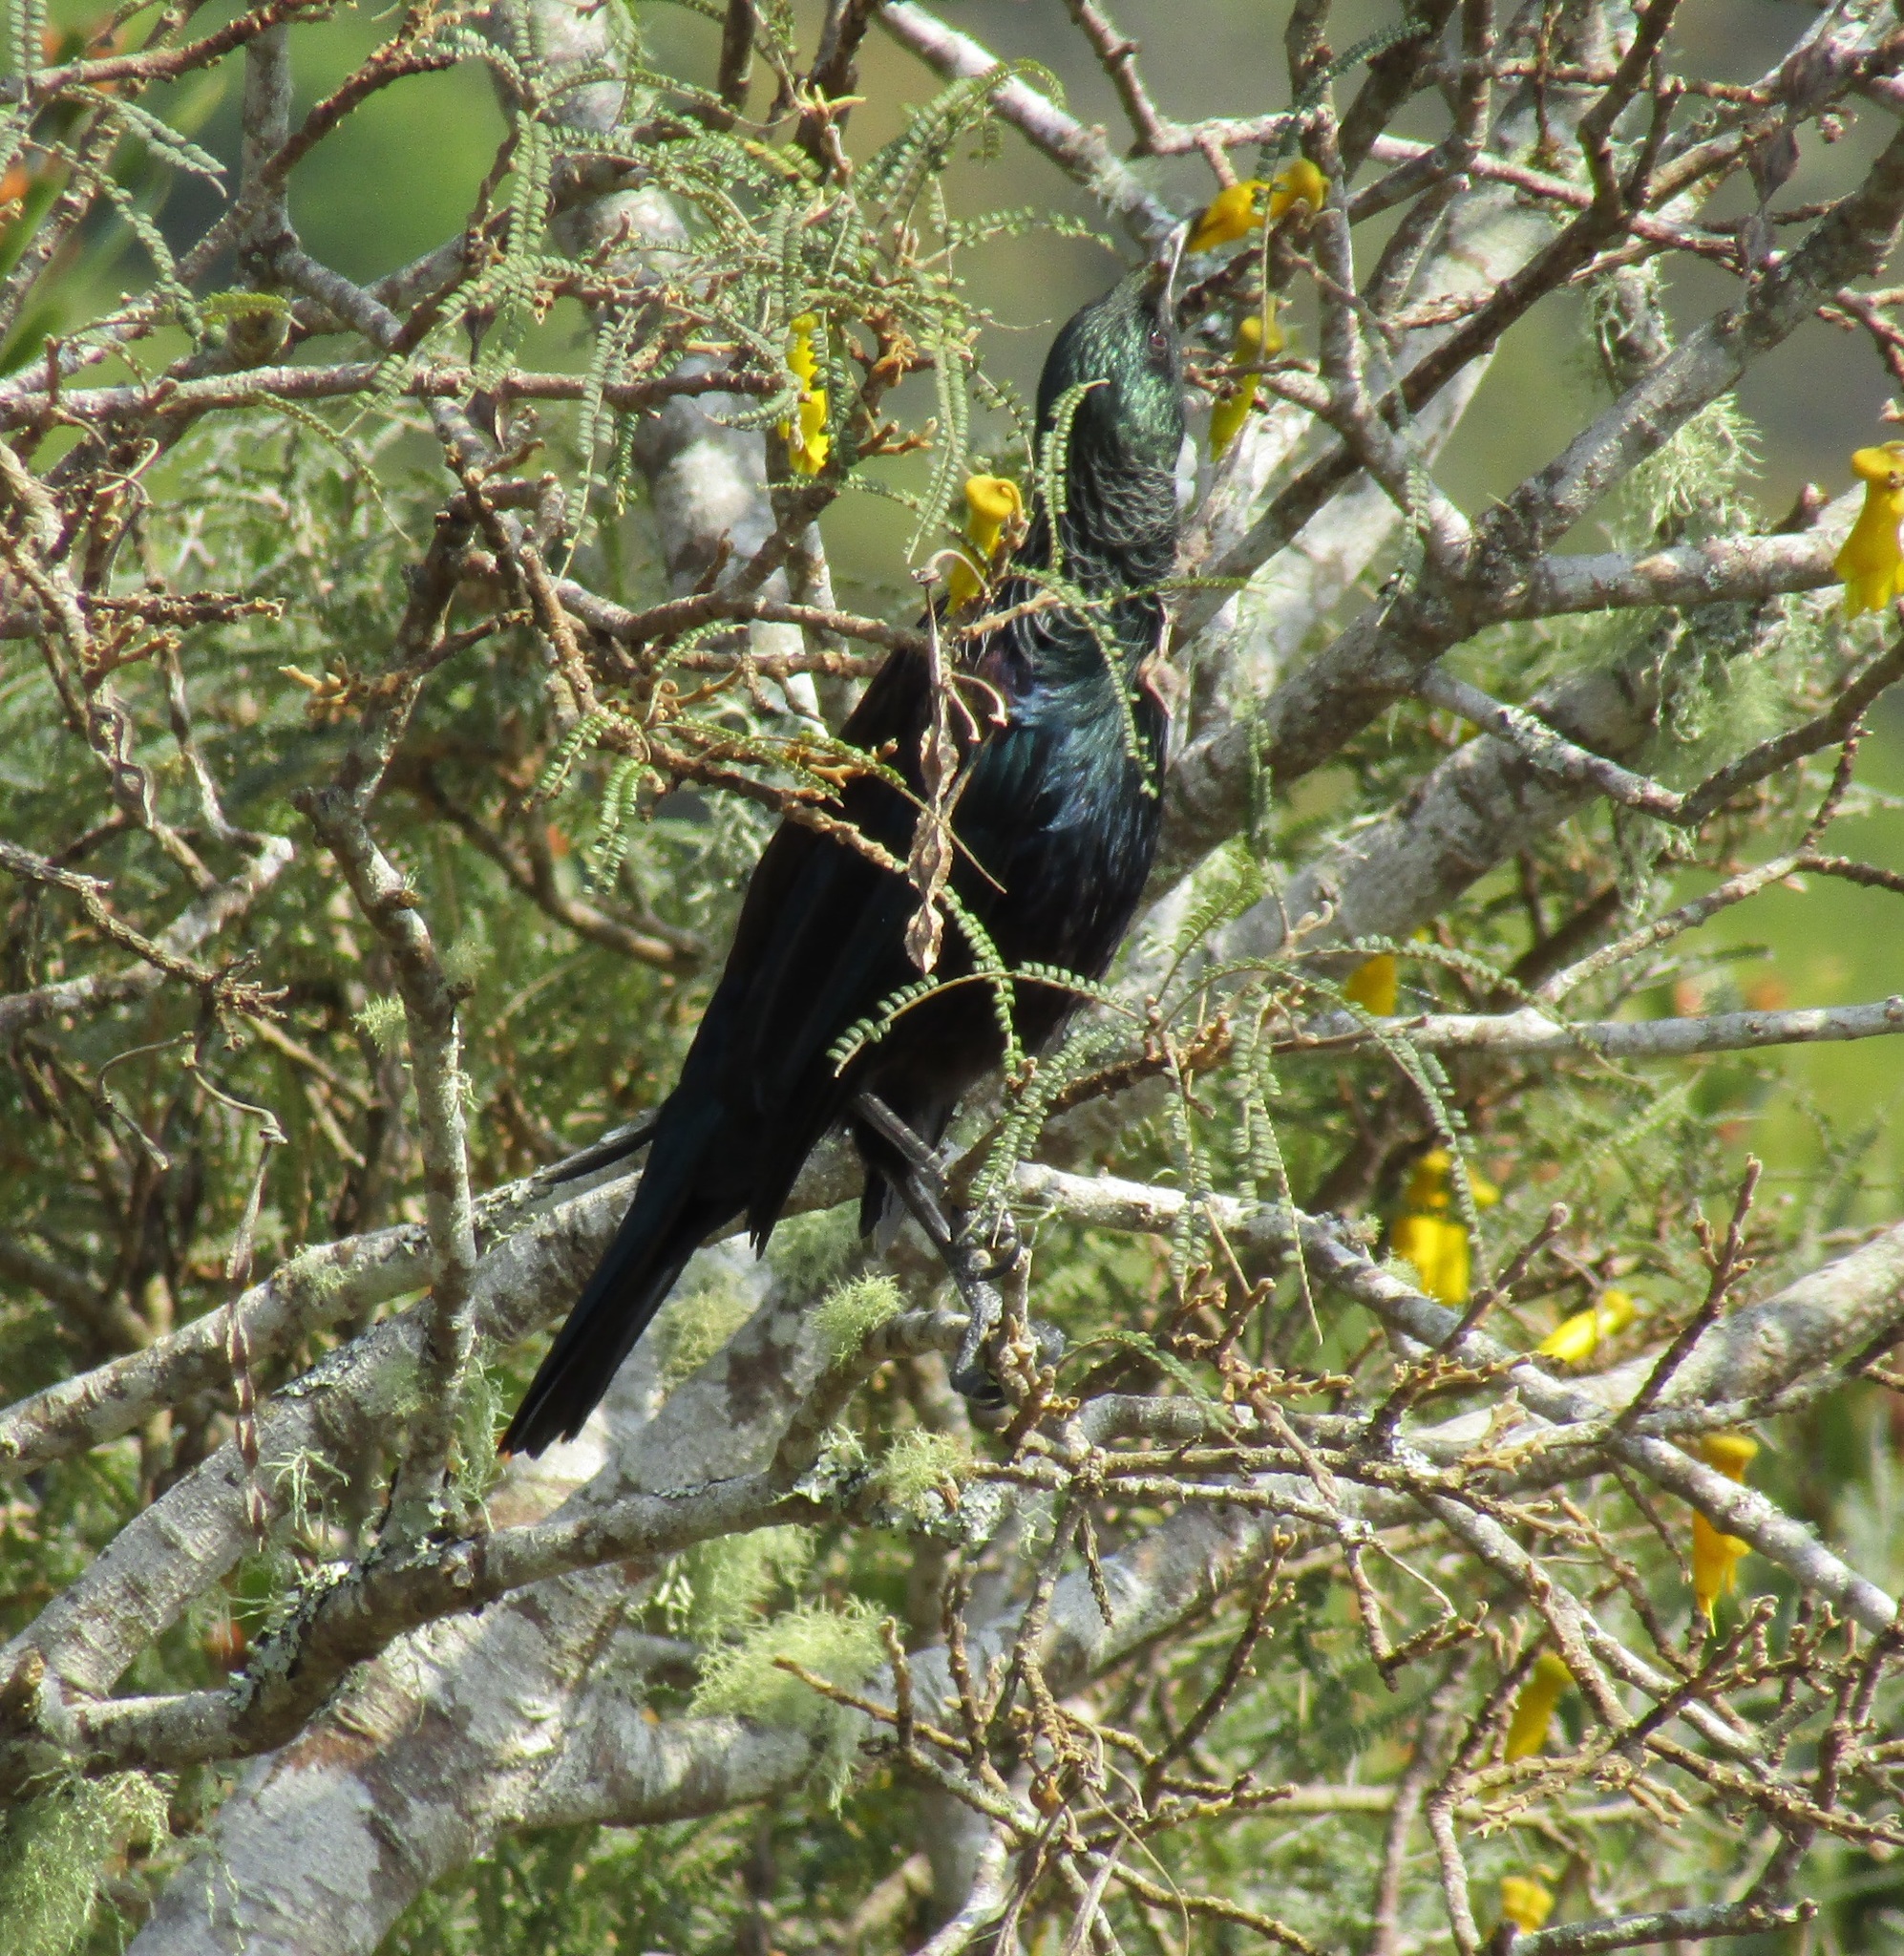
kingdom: Animalia
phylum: Chordata
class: Aves
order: Passeriformes
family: Meliphagidae
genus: Prosthemadera
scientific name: Prosthemadera novaeseelandiae
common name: Tui
